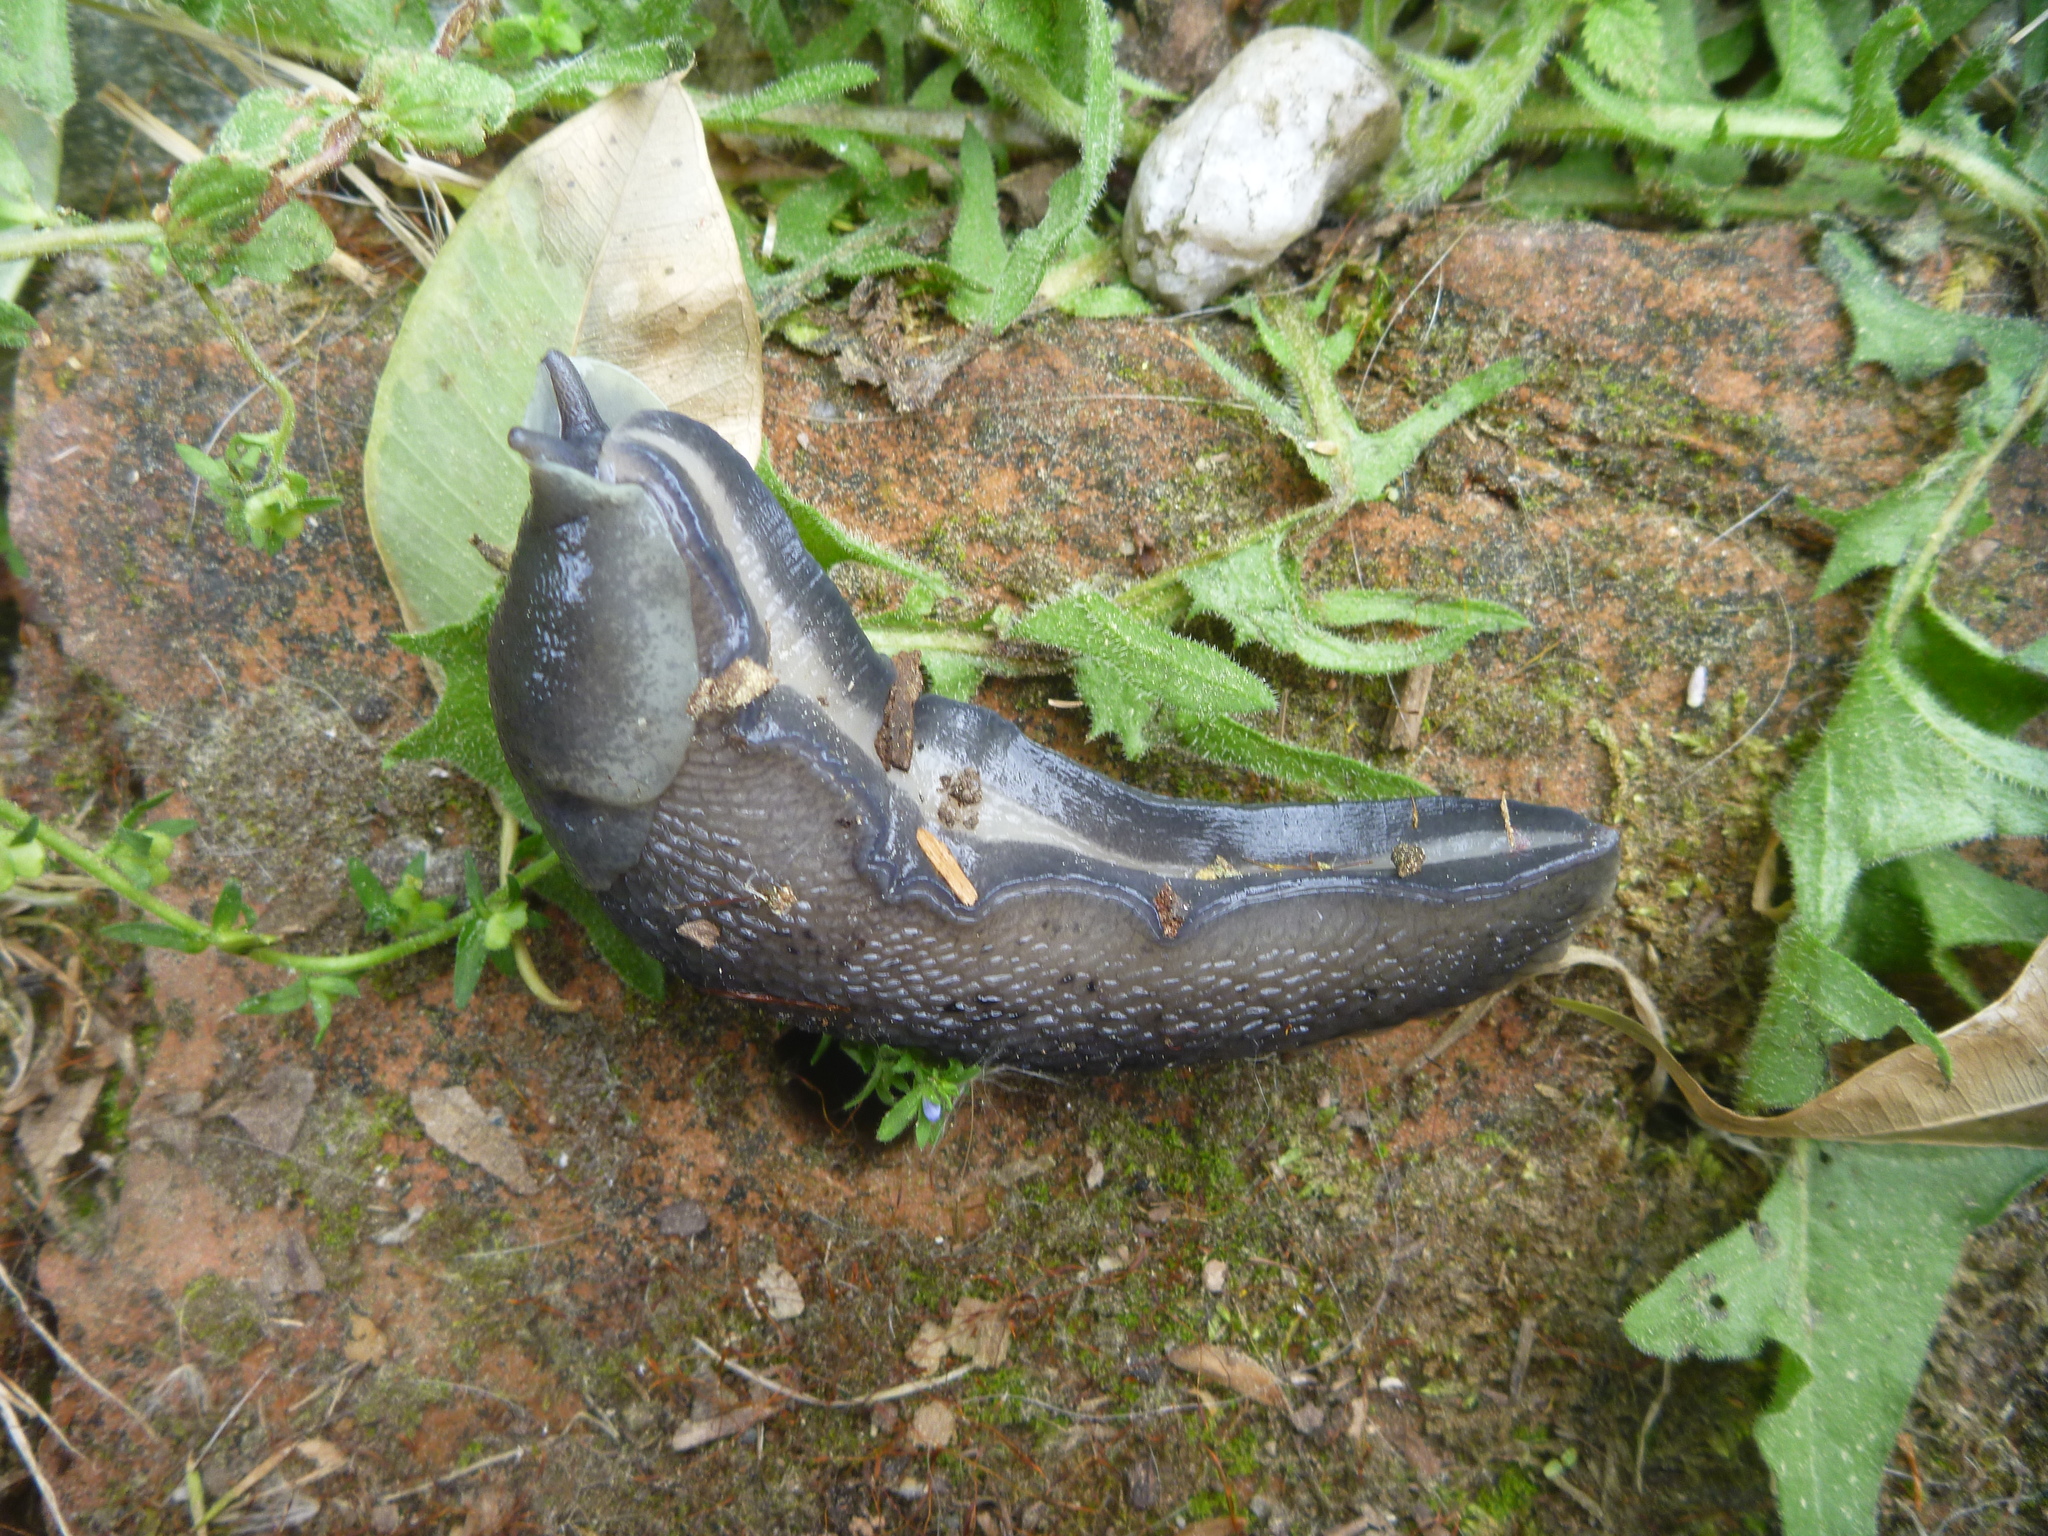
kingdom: Animalia
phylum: Mollusca
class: Gastropoda
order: Stylommatophora
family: Limacidae
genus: Limax
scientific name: Limax cinereoniger
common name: Ash-black slug
